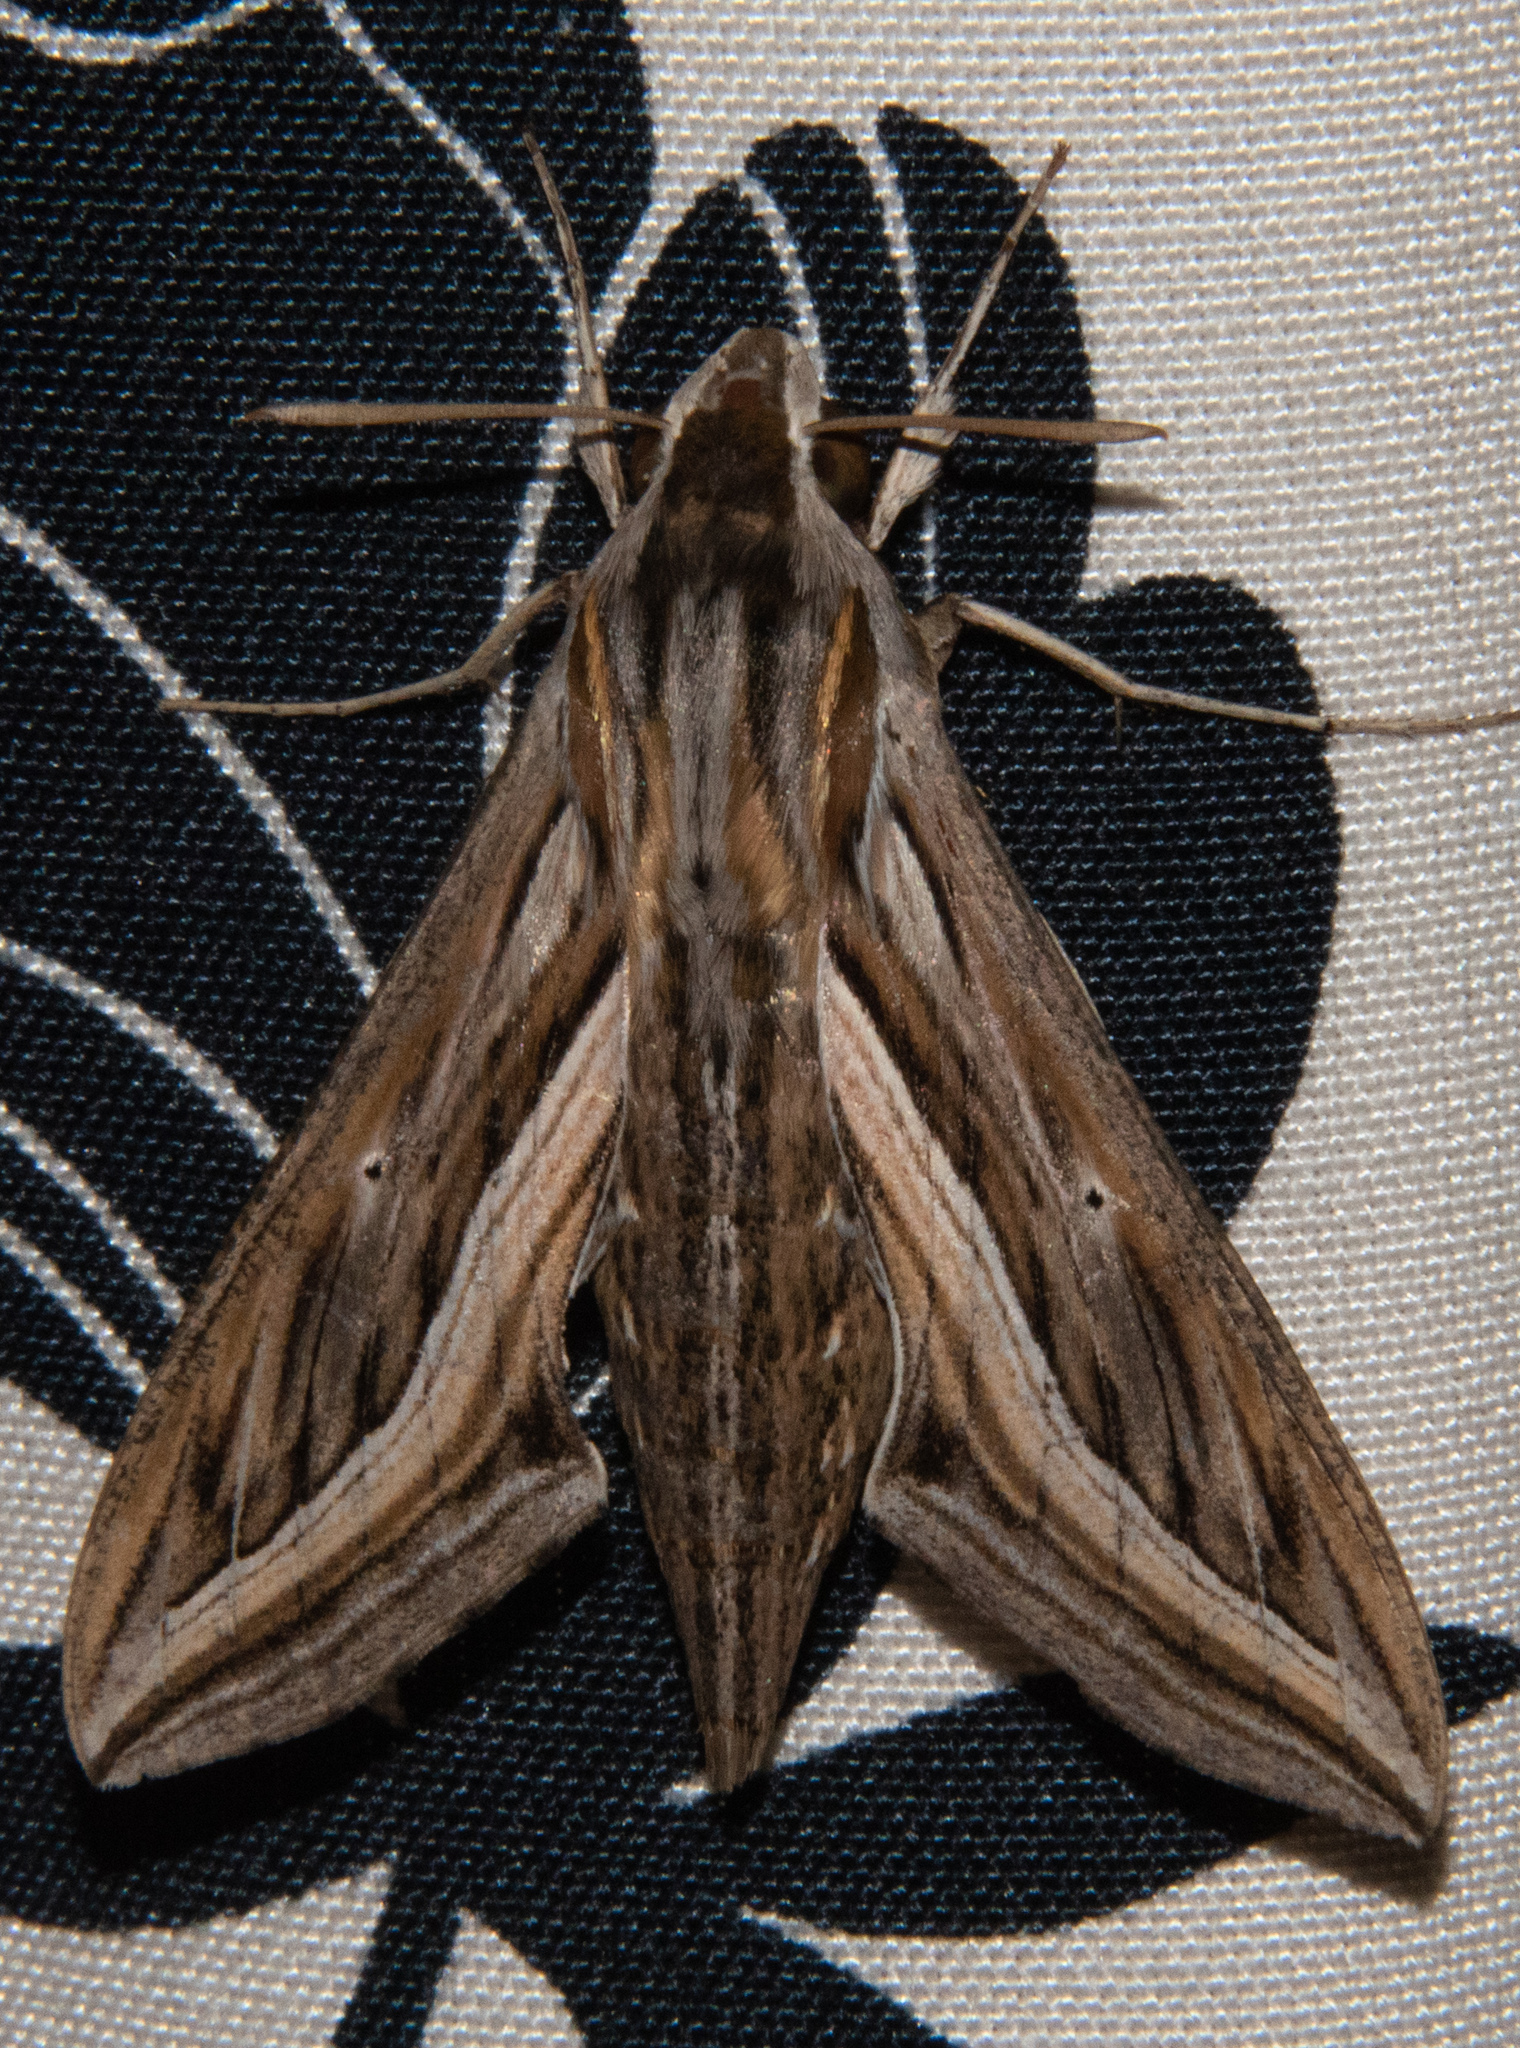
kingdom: Animalia
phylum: Arthropoda
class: Insecta
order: Lepidoptera
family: Sphingidae
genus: Hippotion
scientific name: Hippotion celerio
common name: Silver-striped hawk-moth
